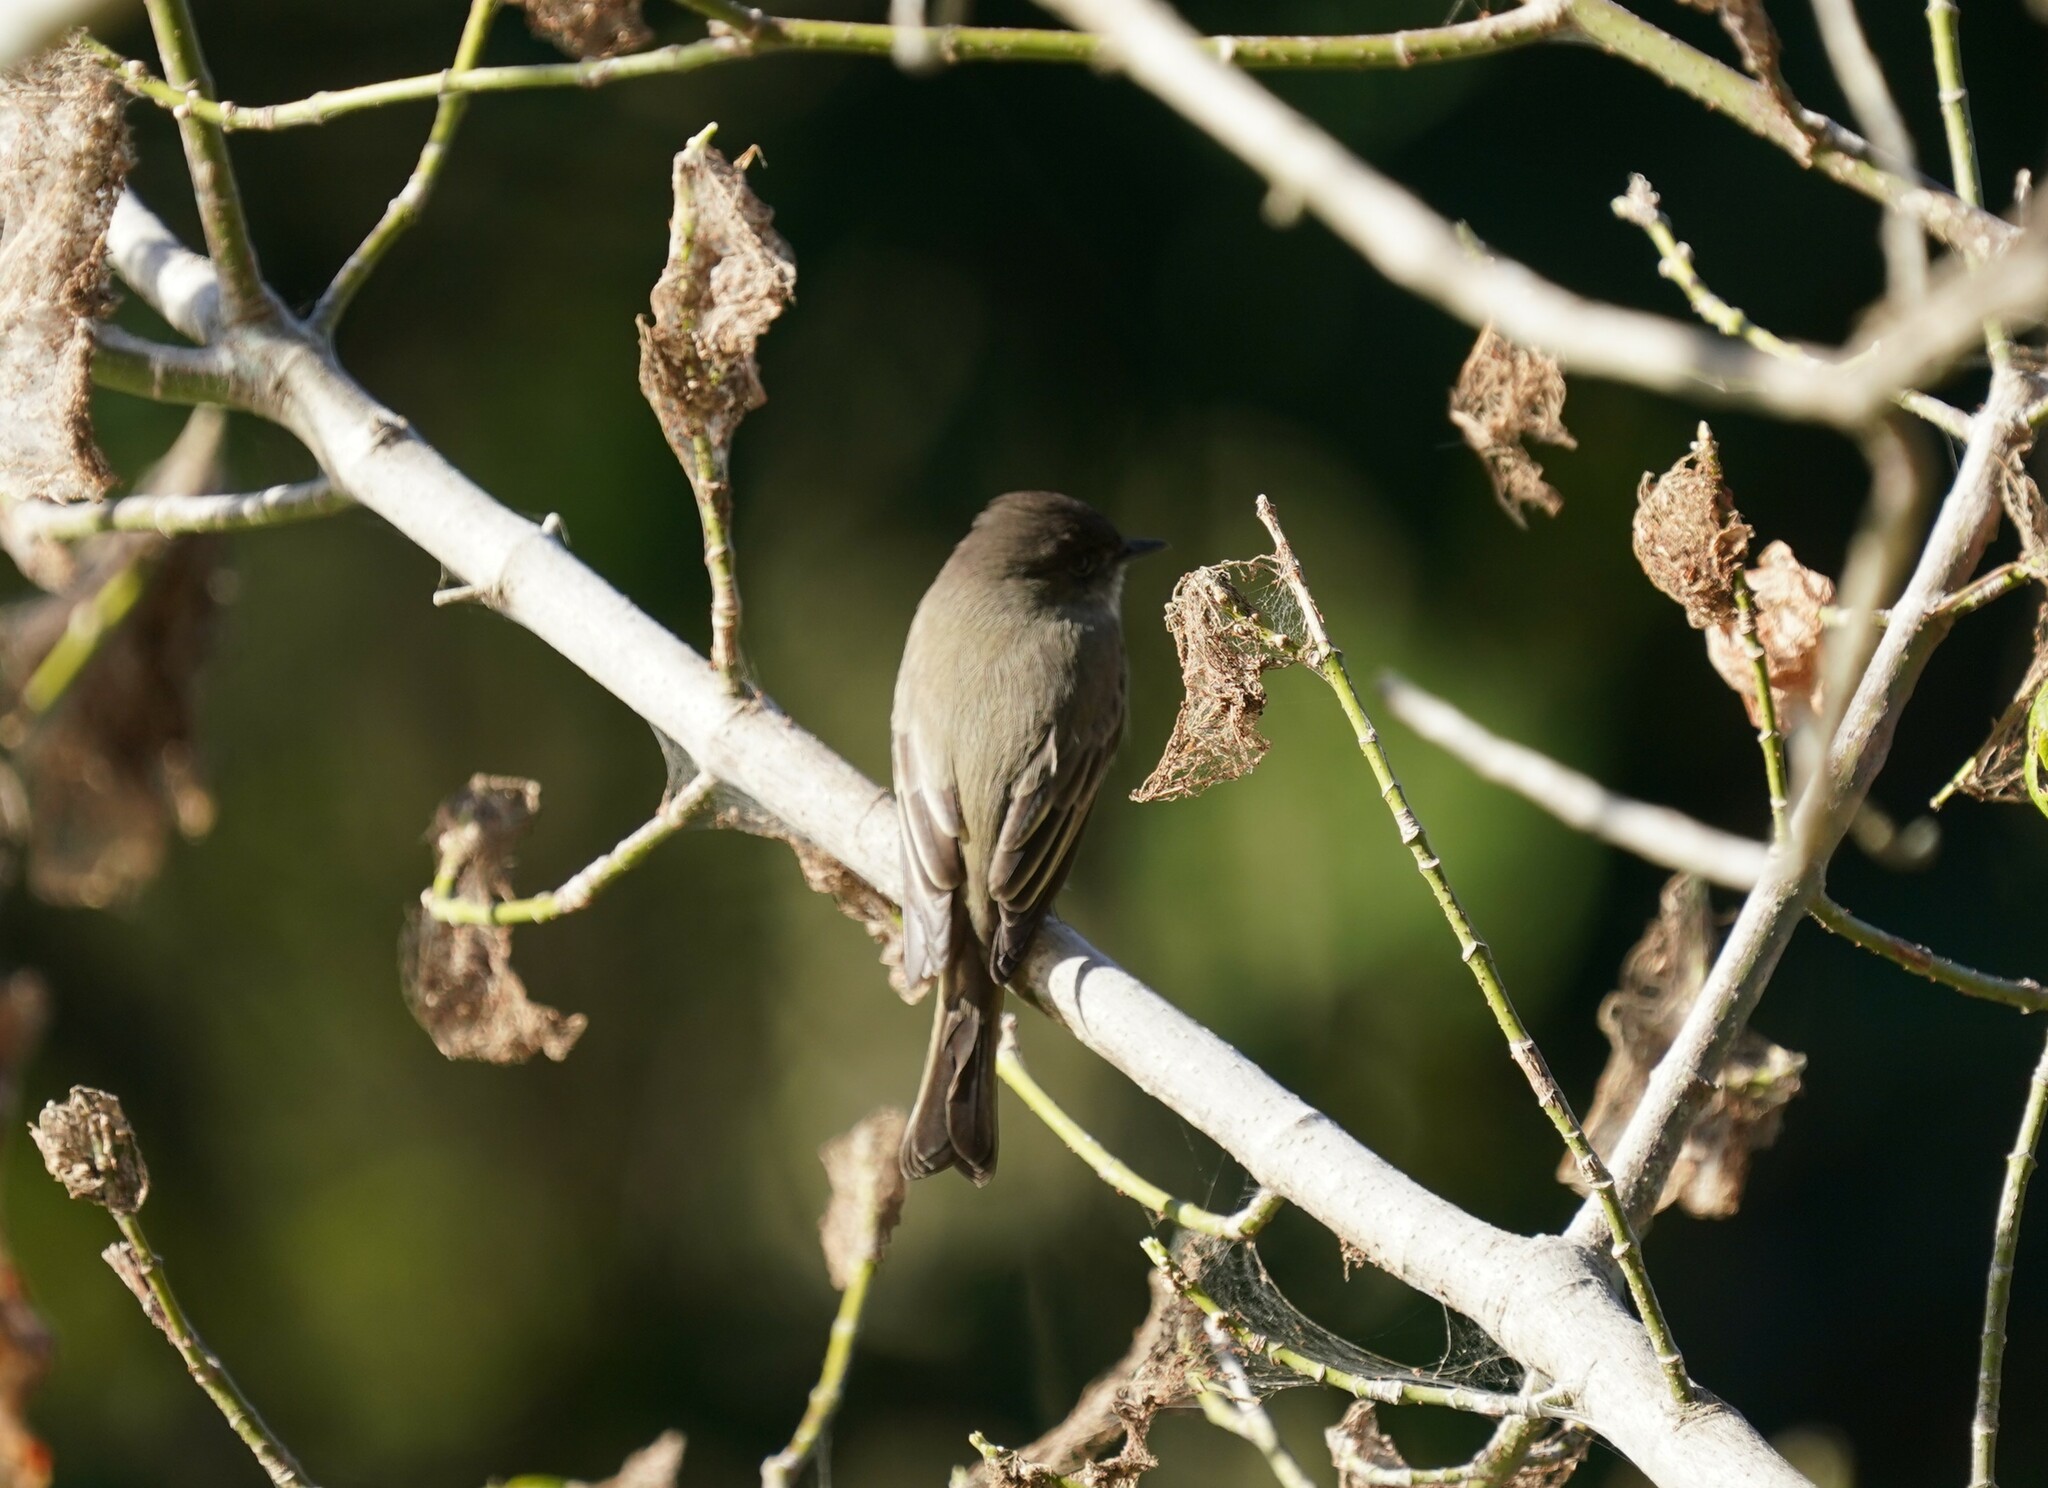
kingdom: Animalia
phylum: Chordata
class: Aves
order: Passeriformes
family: Tyrannidae
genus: Sayornis
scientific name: Sayornis phoebe
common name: Eastern phoebe
